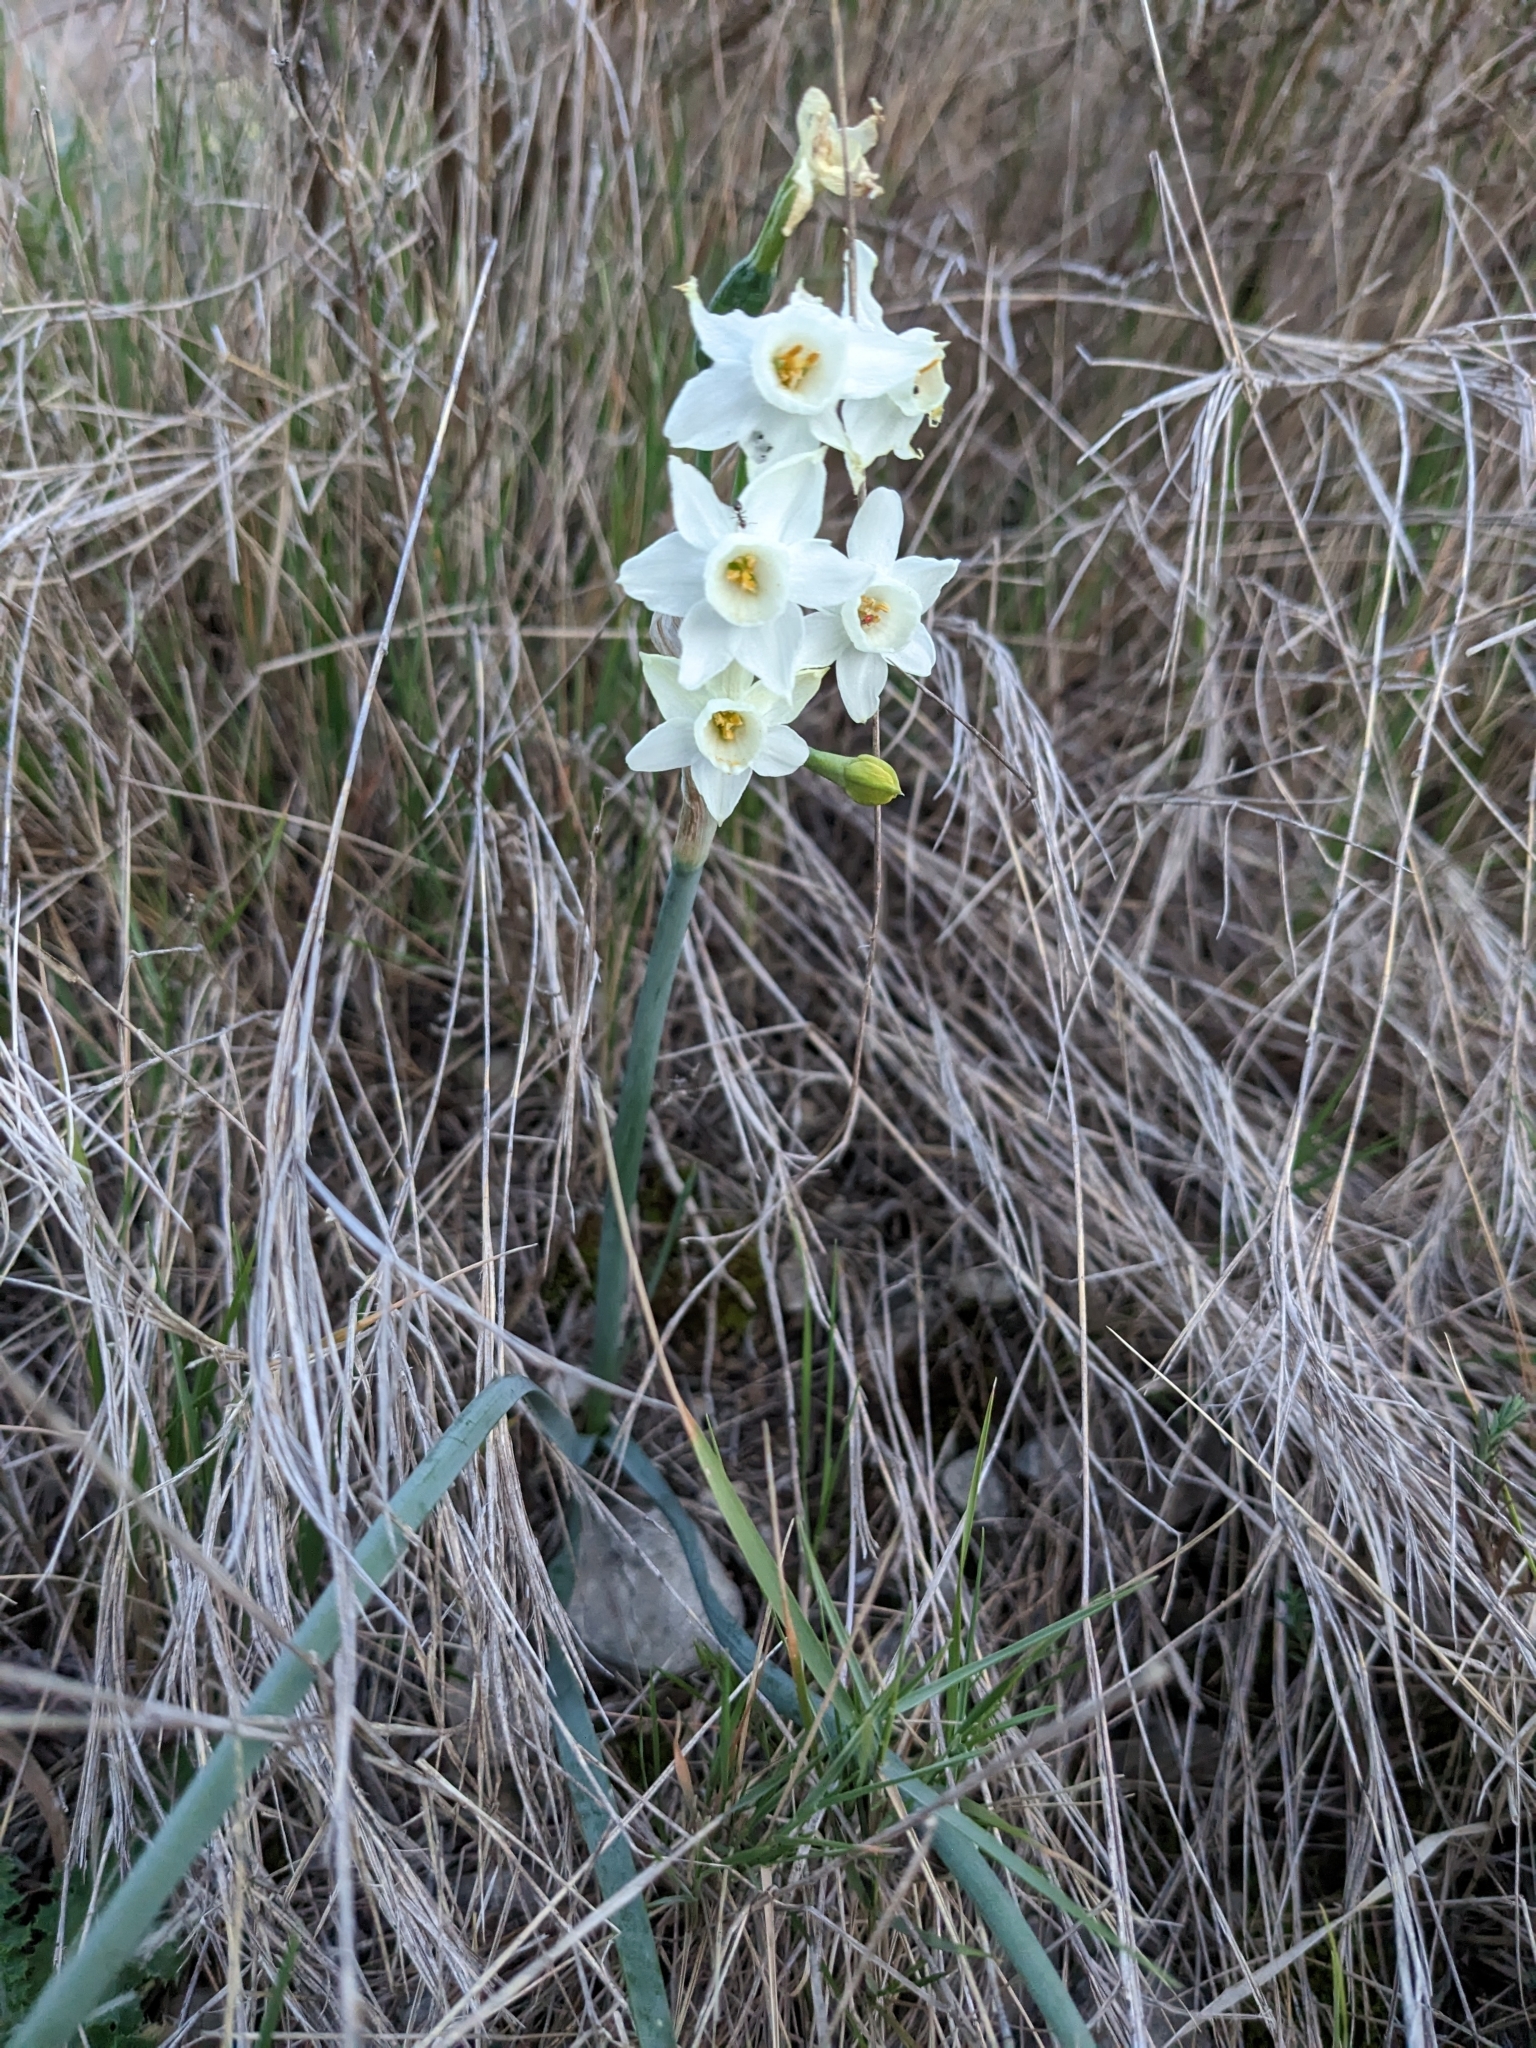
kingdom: Plantae
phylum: Tracheophyta
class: Liliopsida
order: Asparagales
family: Amaryllidaceae
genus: Narcissus
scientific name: Narcissus dubius
